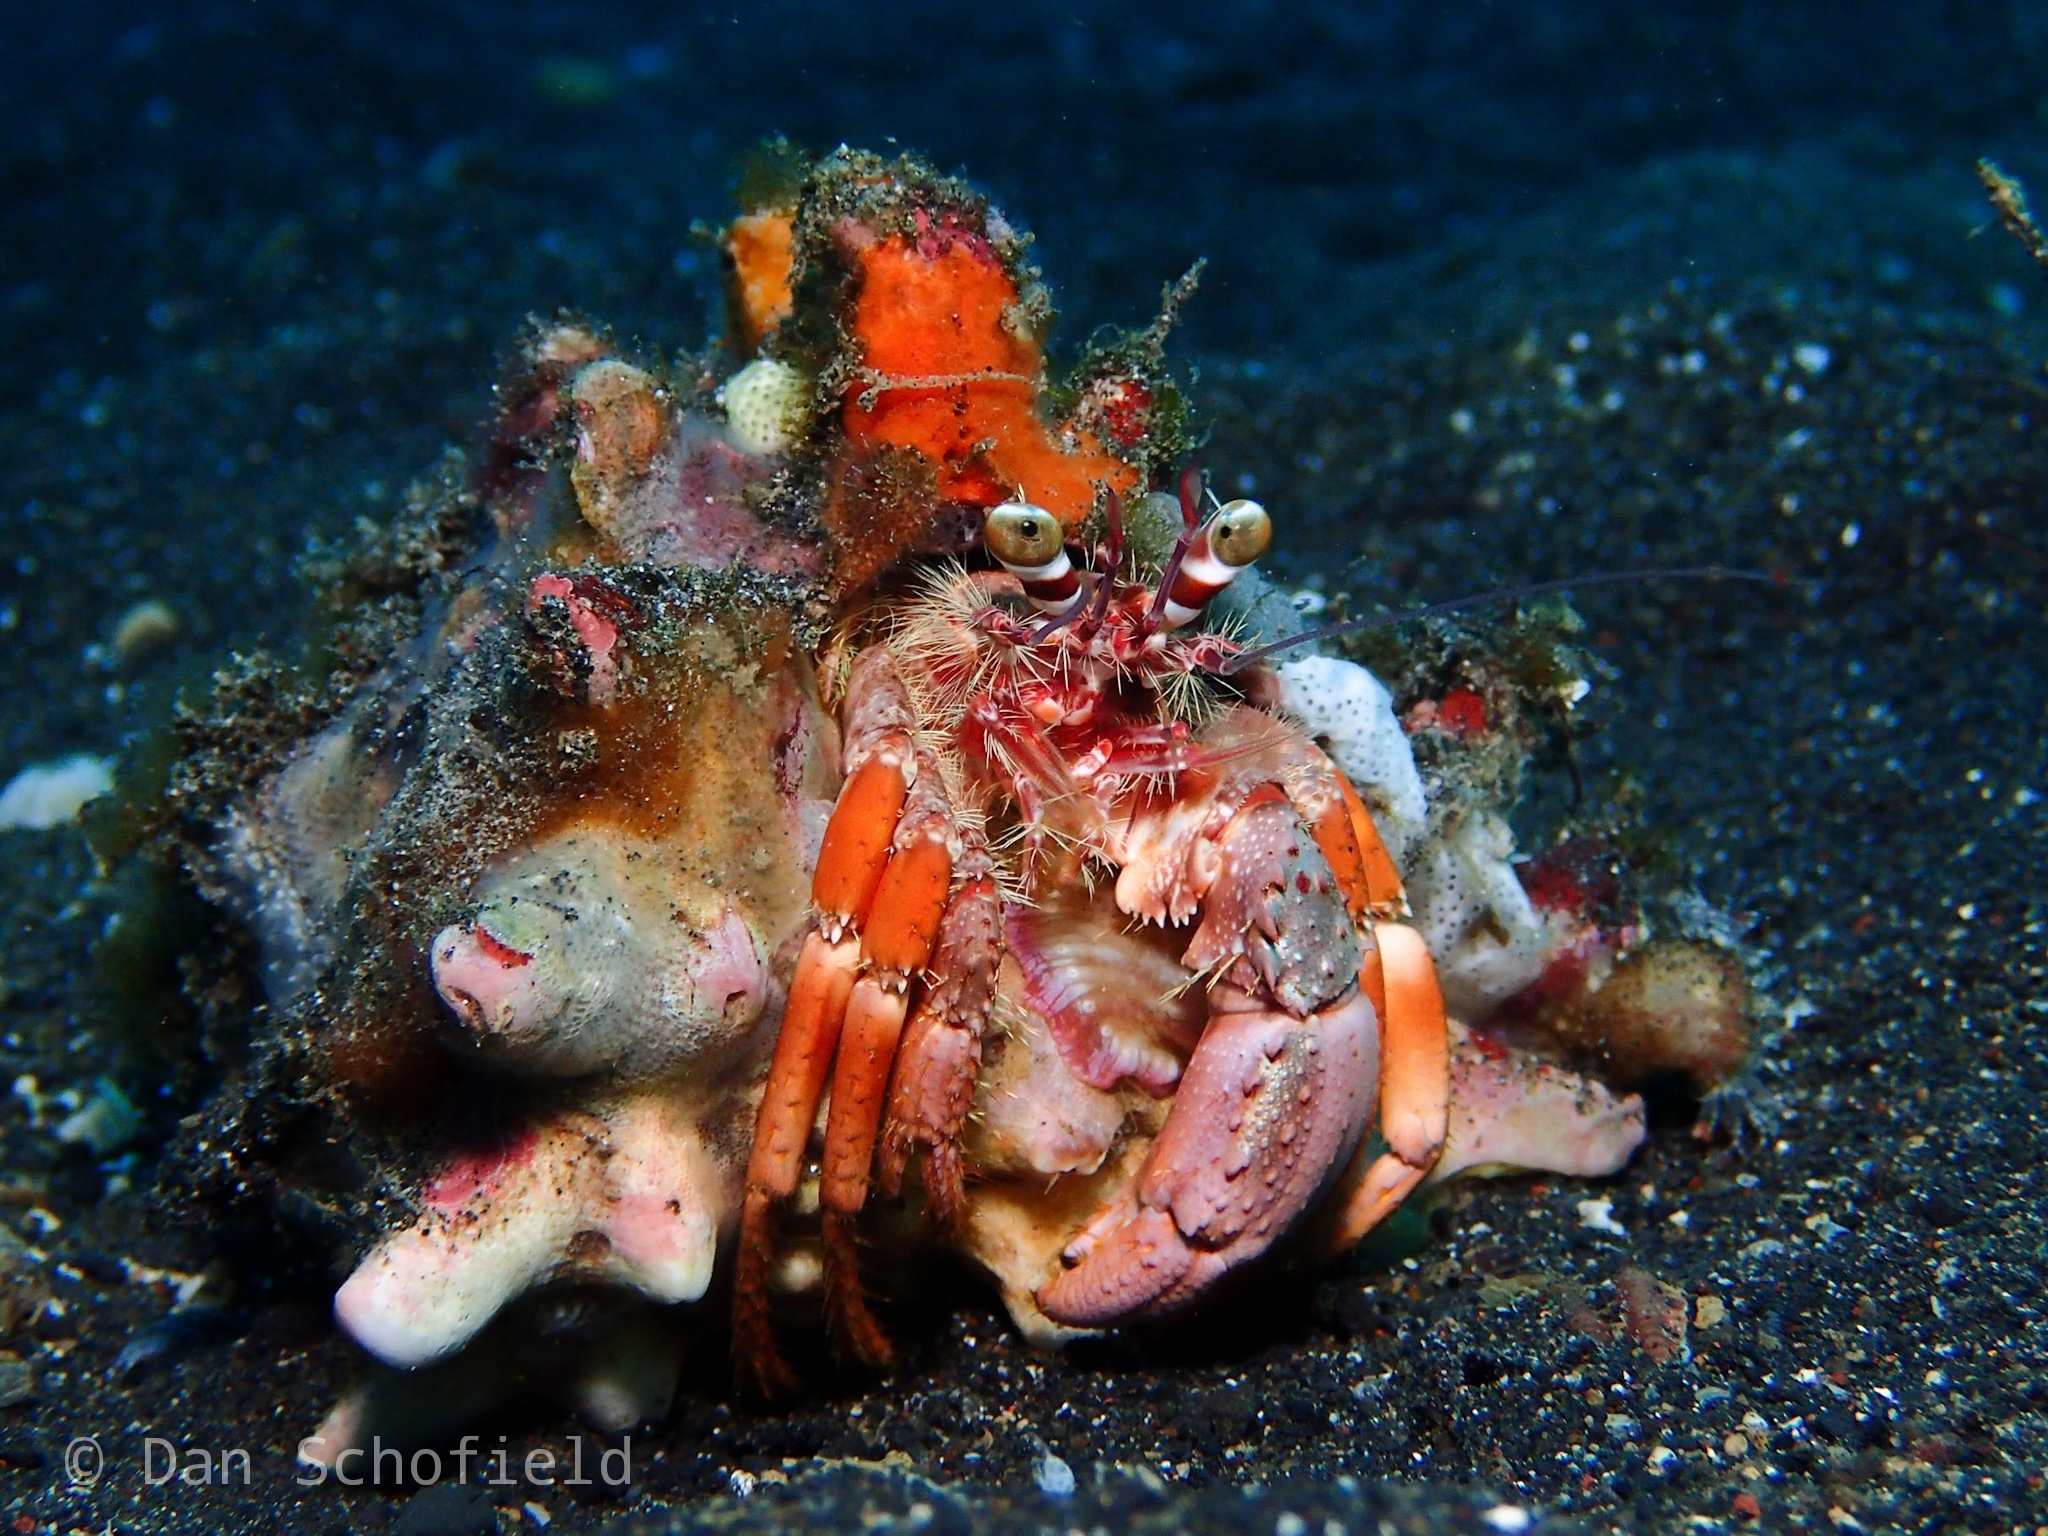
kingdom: Animalia
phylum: Arthropoda
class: Malacostraca
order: Decapoda
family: Diogenidae
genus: Dardanus
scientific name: Dardanus pedunculatus
